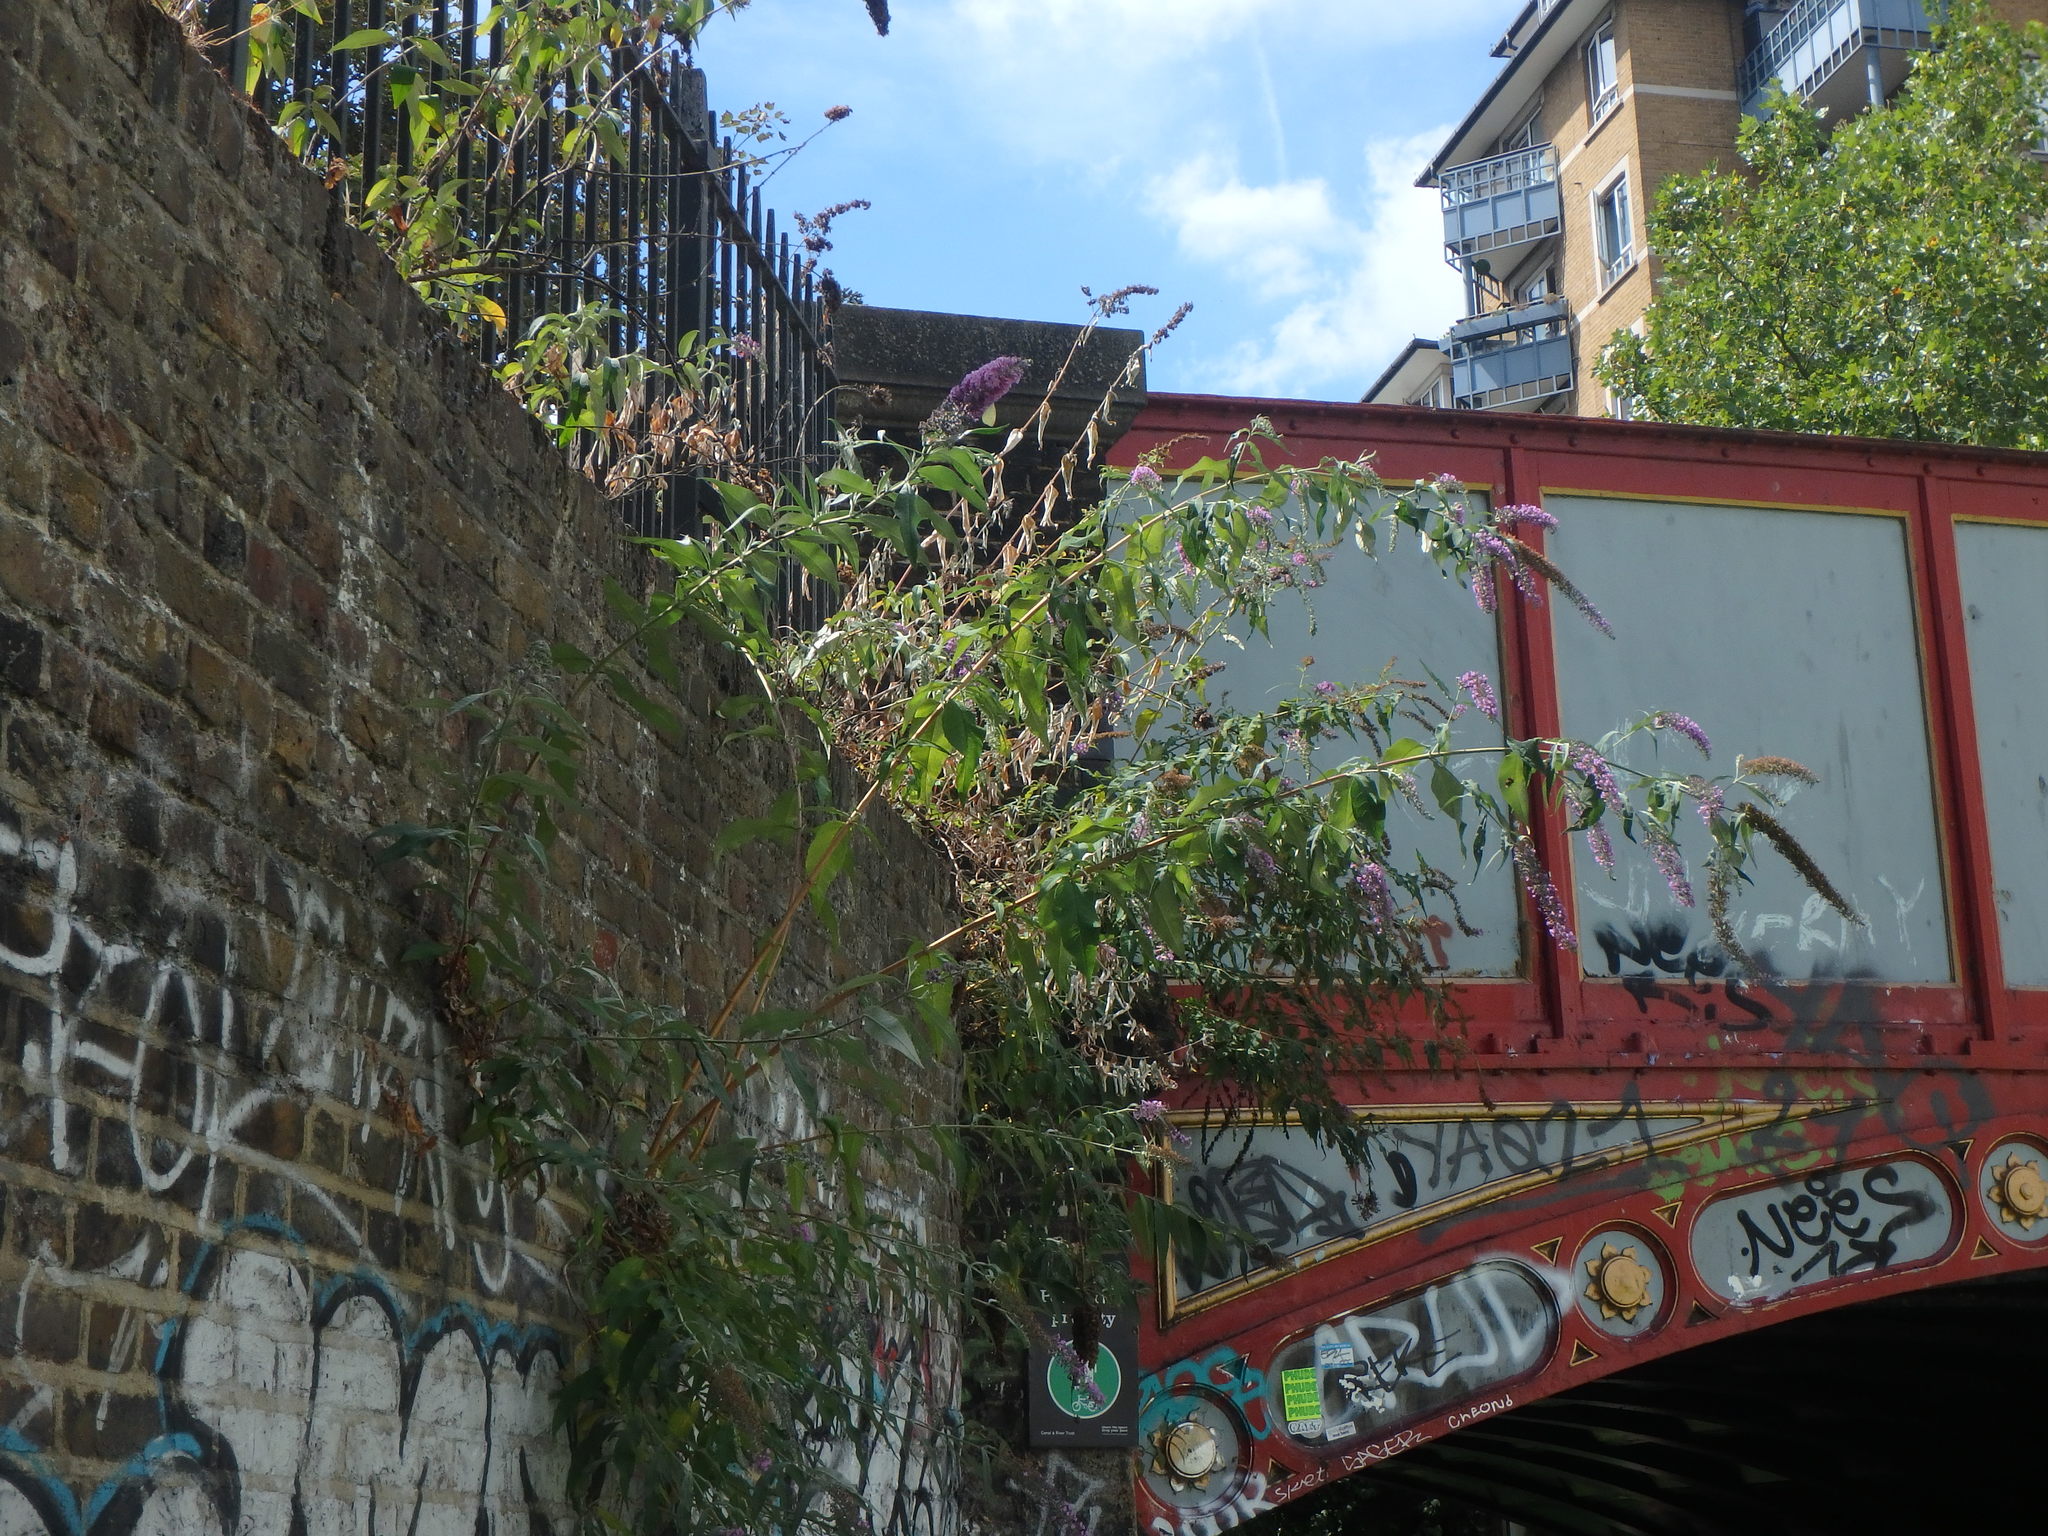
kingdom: Plantae
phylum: Tracheophyta
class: Magnoliopsida
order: Lamiales
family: Scrophulariaceae
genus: Buddleja
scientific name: Buddleja davidii
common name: Butterfly-bush
